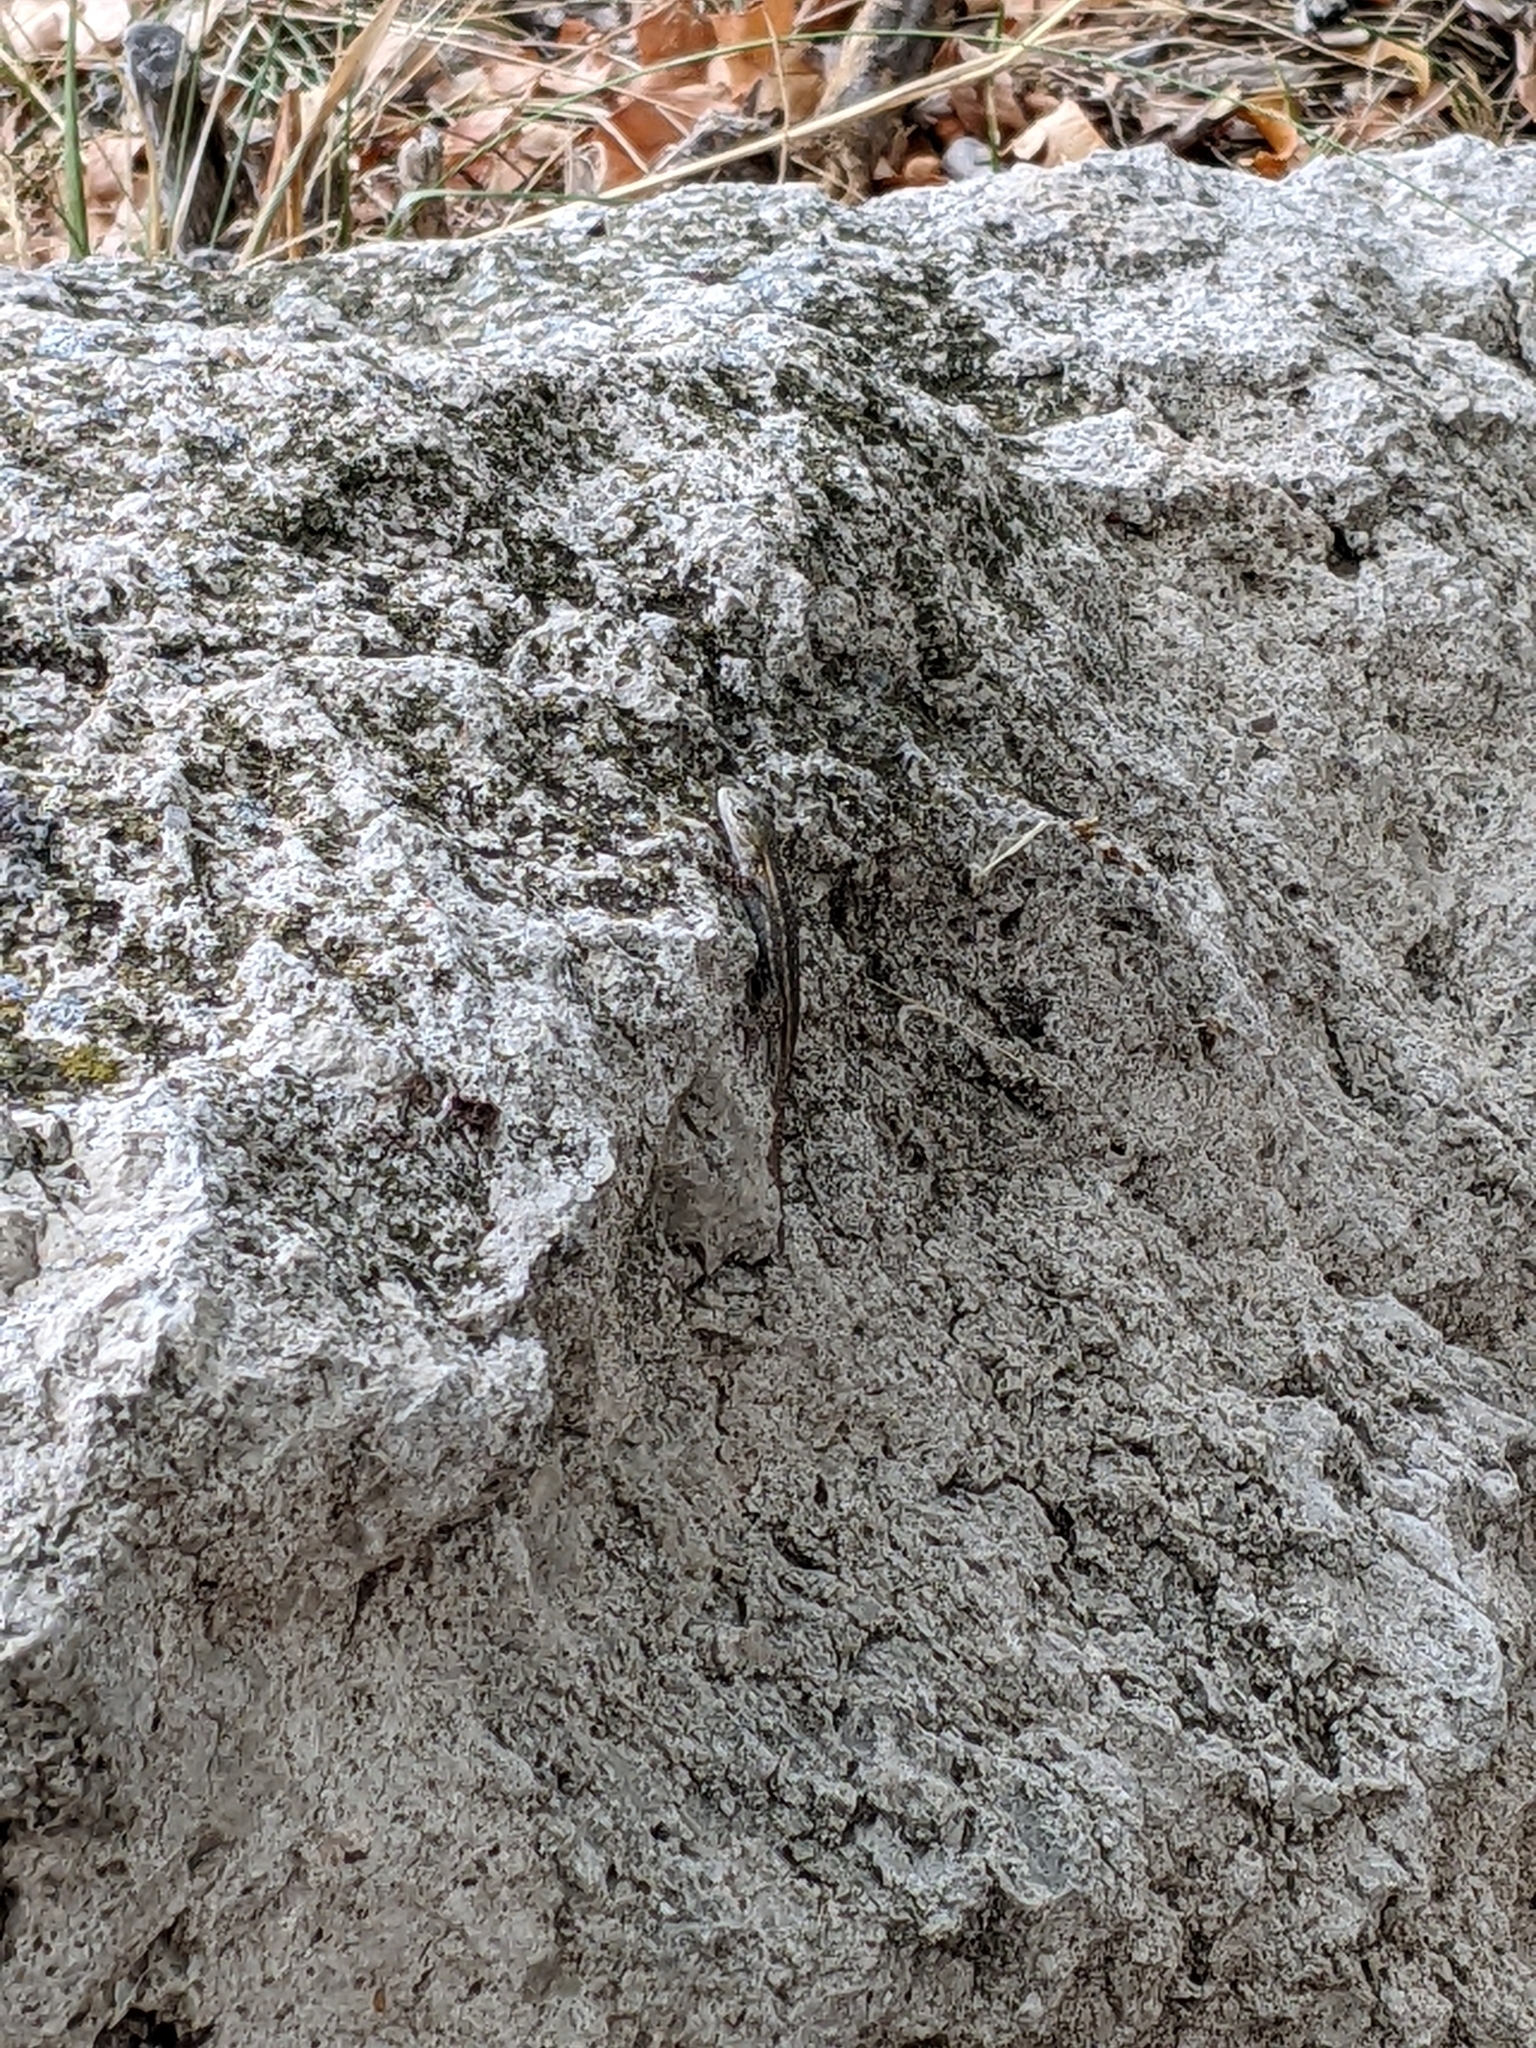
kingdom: Animalia
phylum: Chordata
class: Squamata
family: Phrynosomatidae
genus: Sceloporus
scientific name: Sceloporus consobrinus
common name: Southern prairie lizard
